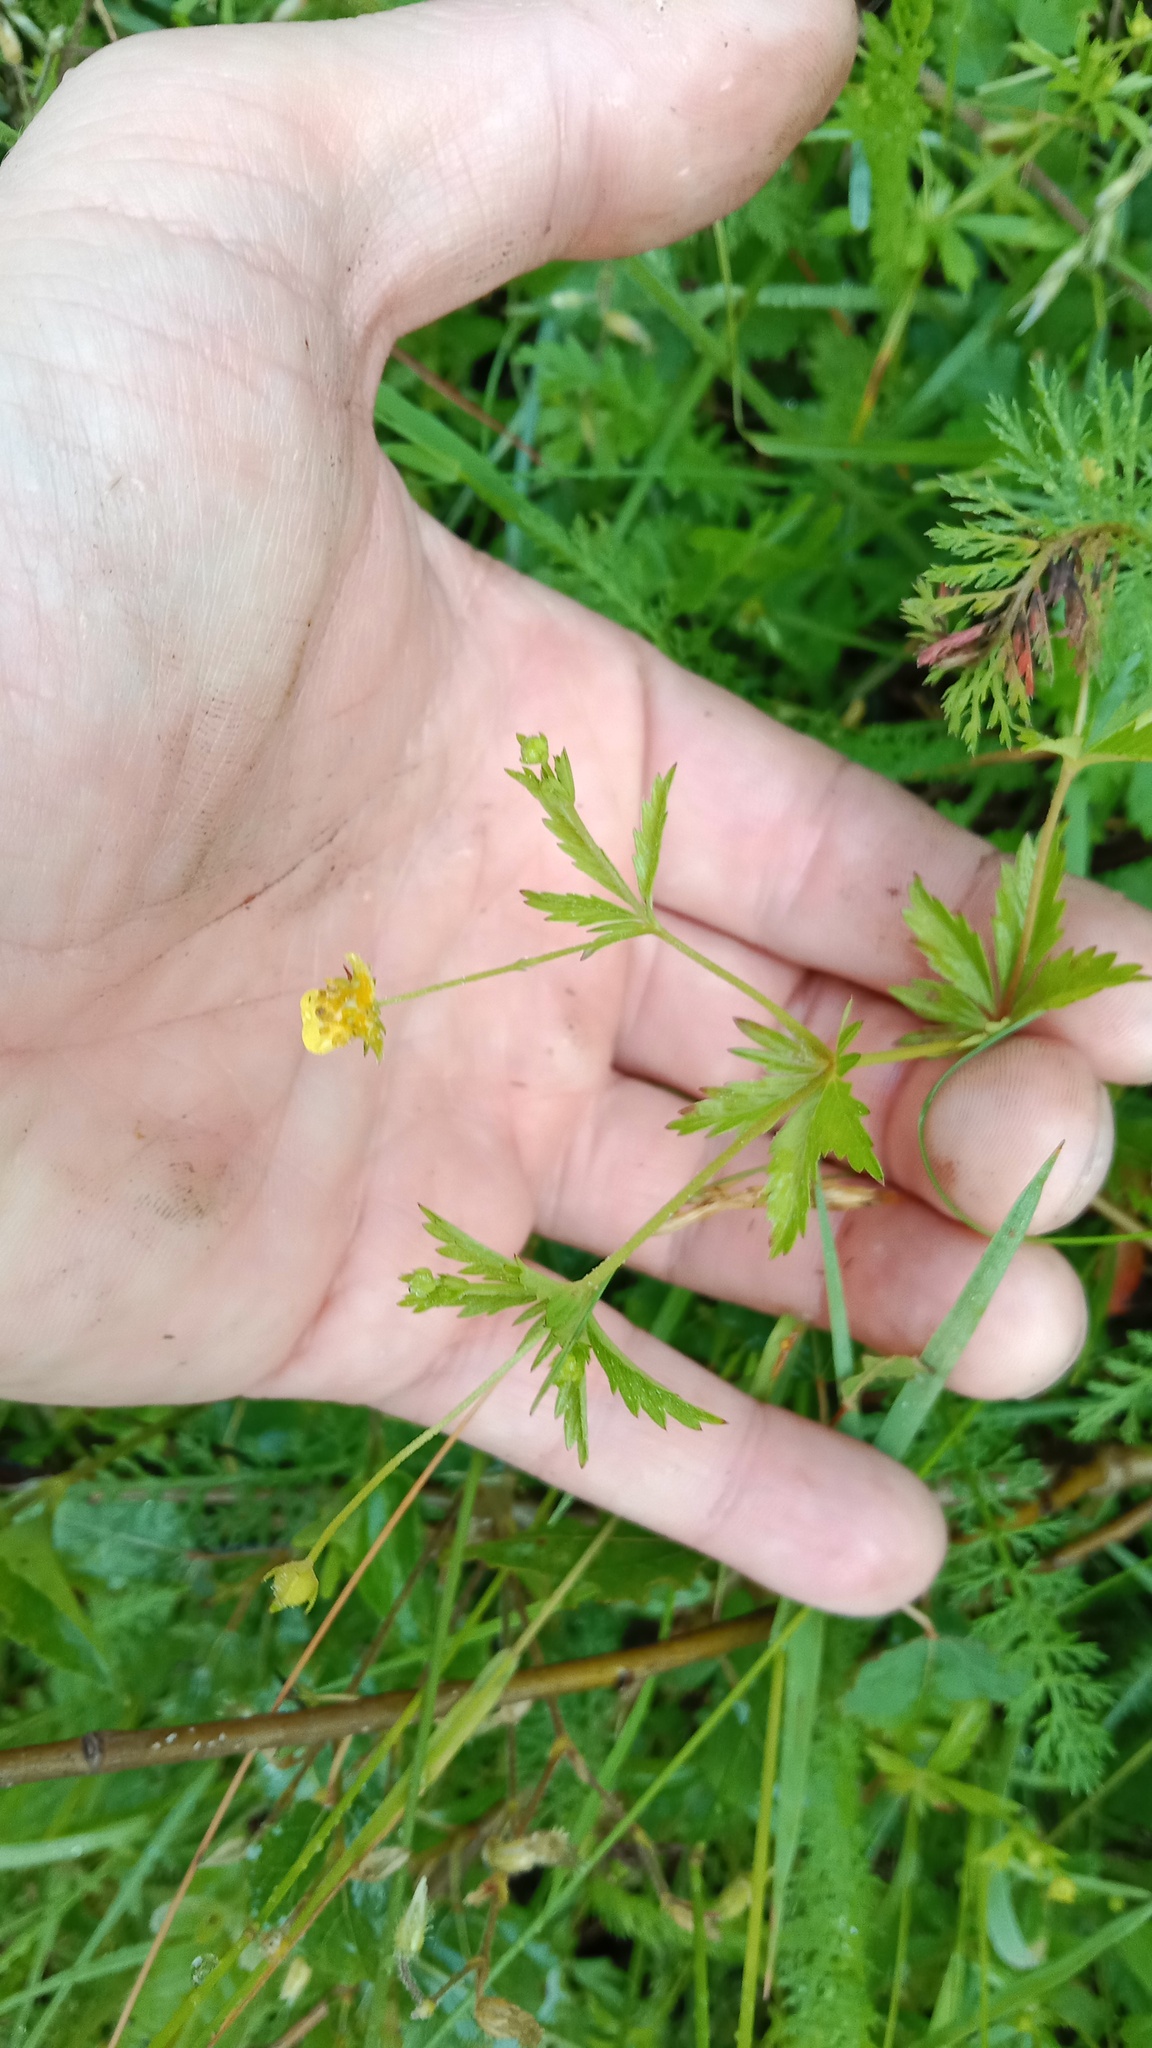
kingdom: Plantae
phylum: Tracheophyta
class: Magnoliopsida
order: Rosales
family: Rosaceae
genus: Potentilla
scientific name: Potentilla erecta
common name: Tormentil
